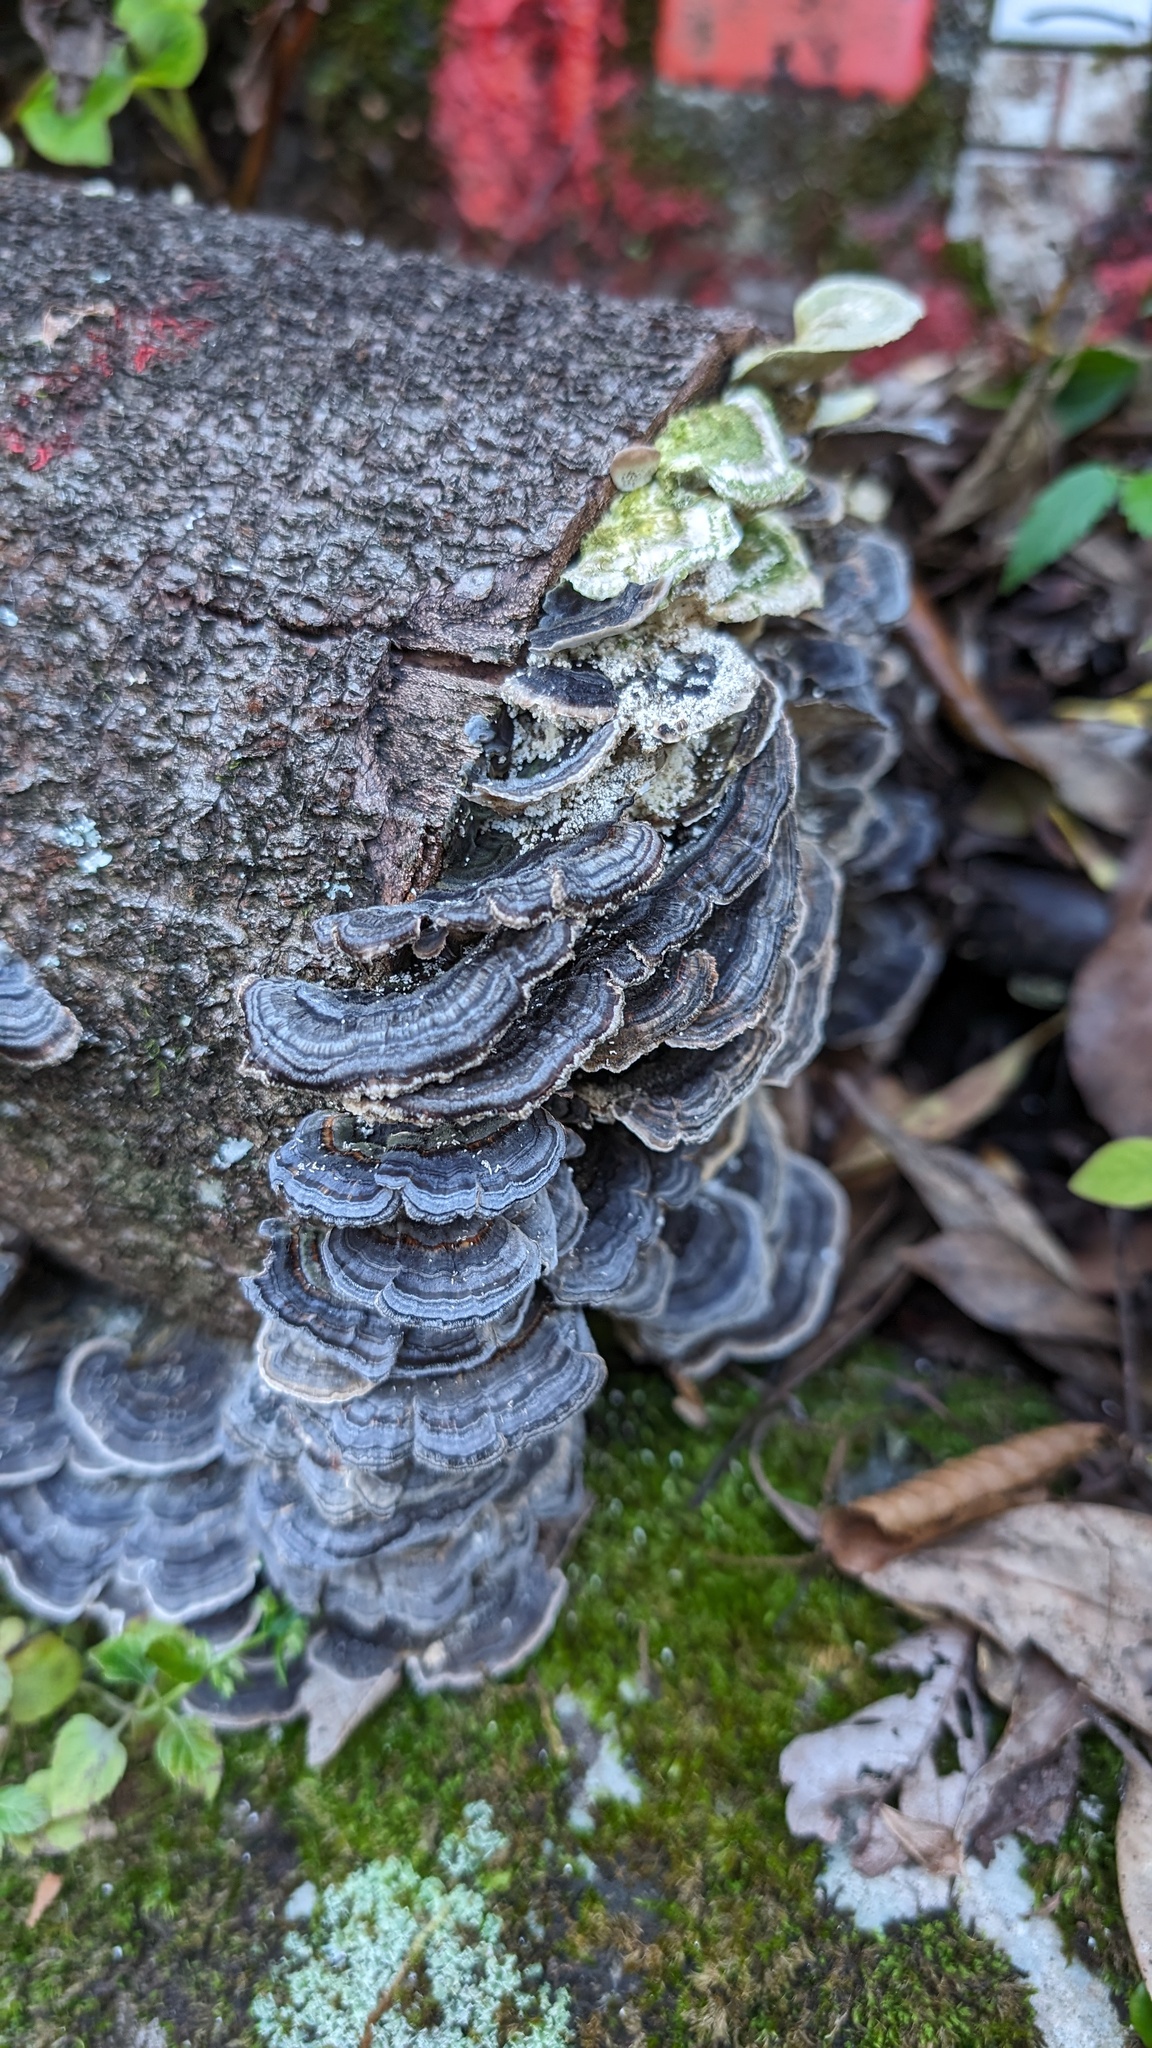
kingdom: Fungi
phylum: Basidiomycota
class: Agaricomycetes
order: Polyporales
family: Polyporaceae
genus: Trametes
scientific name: Trametes versicolor
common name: Turkeytail
